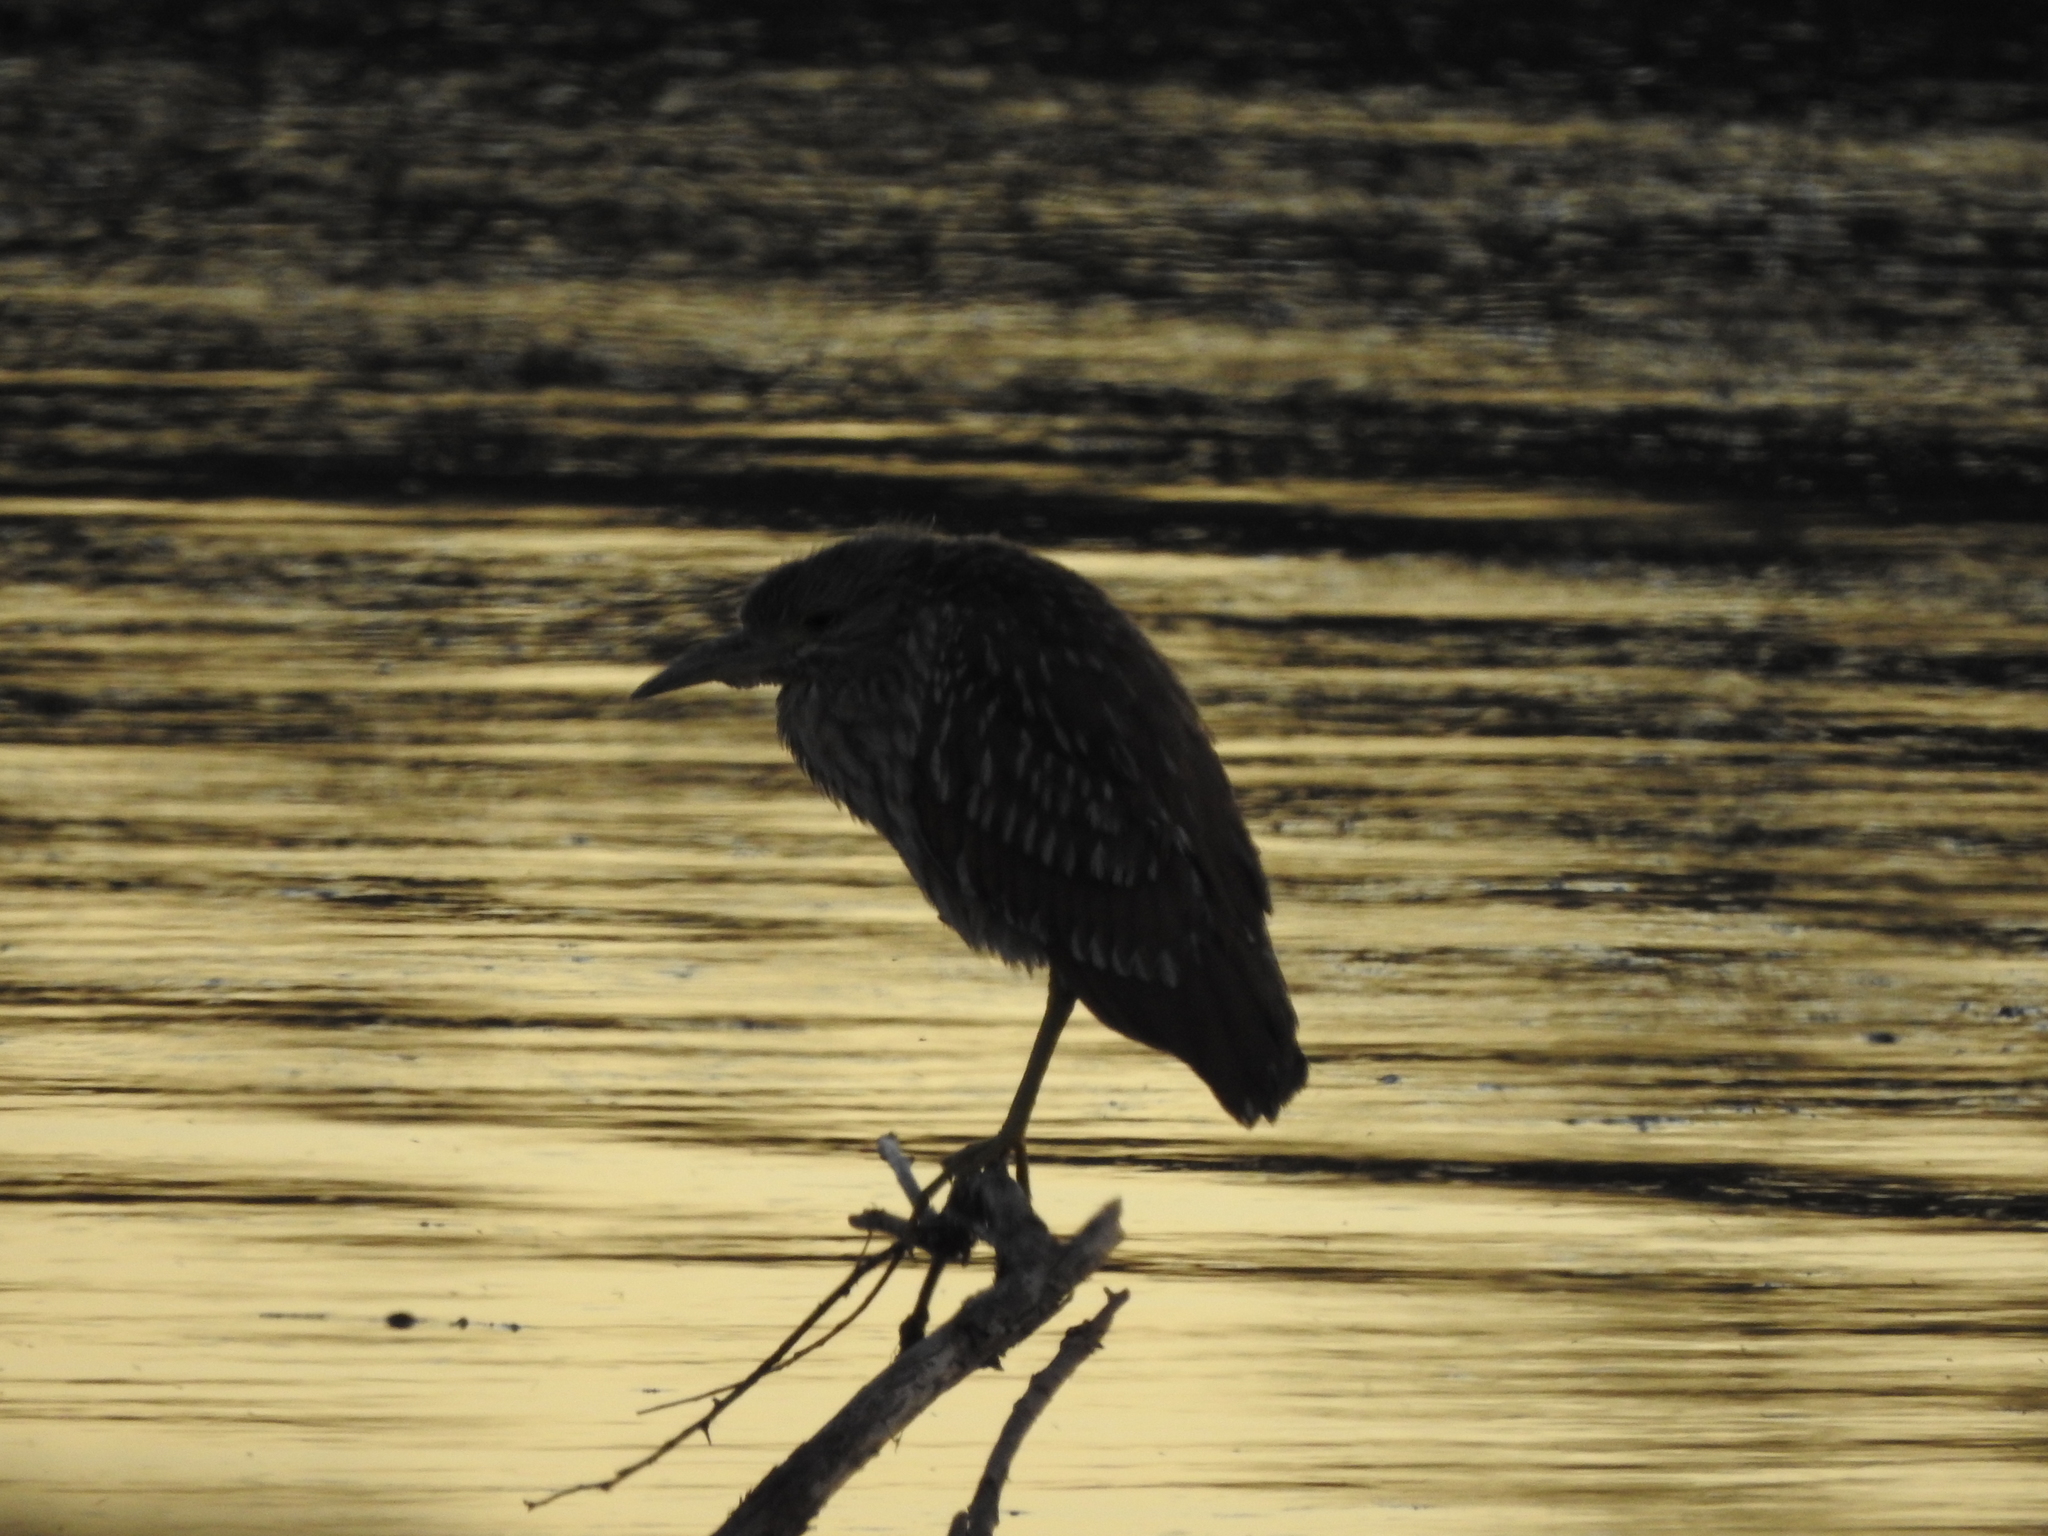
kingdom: Animalia
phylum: Chordata
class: Aves
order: Pelecaniformes
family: Ardeidae
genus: Nycticorax
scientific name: Nycticorax nycticorax
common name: Black-crowned night heron
